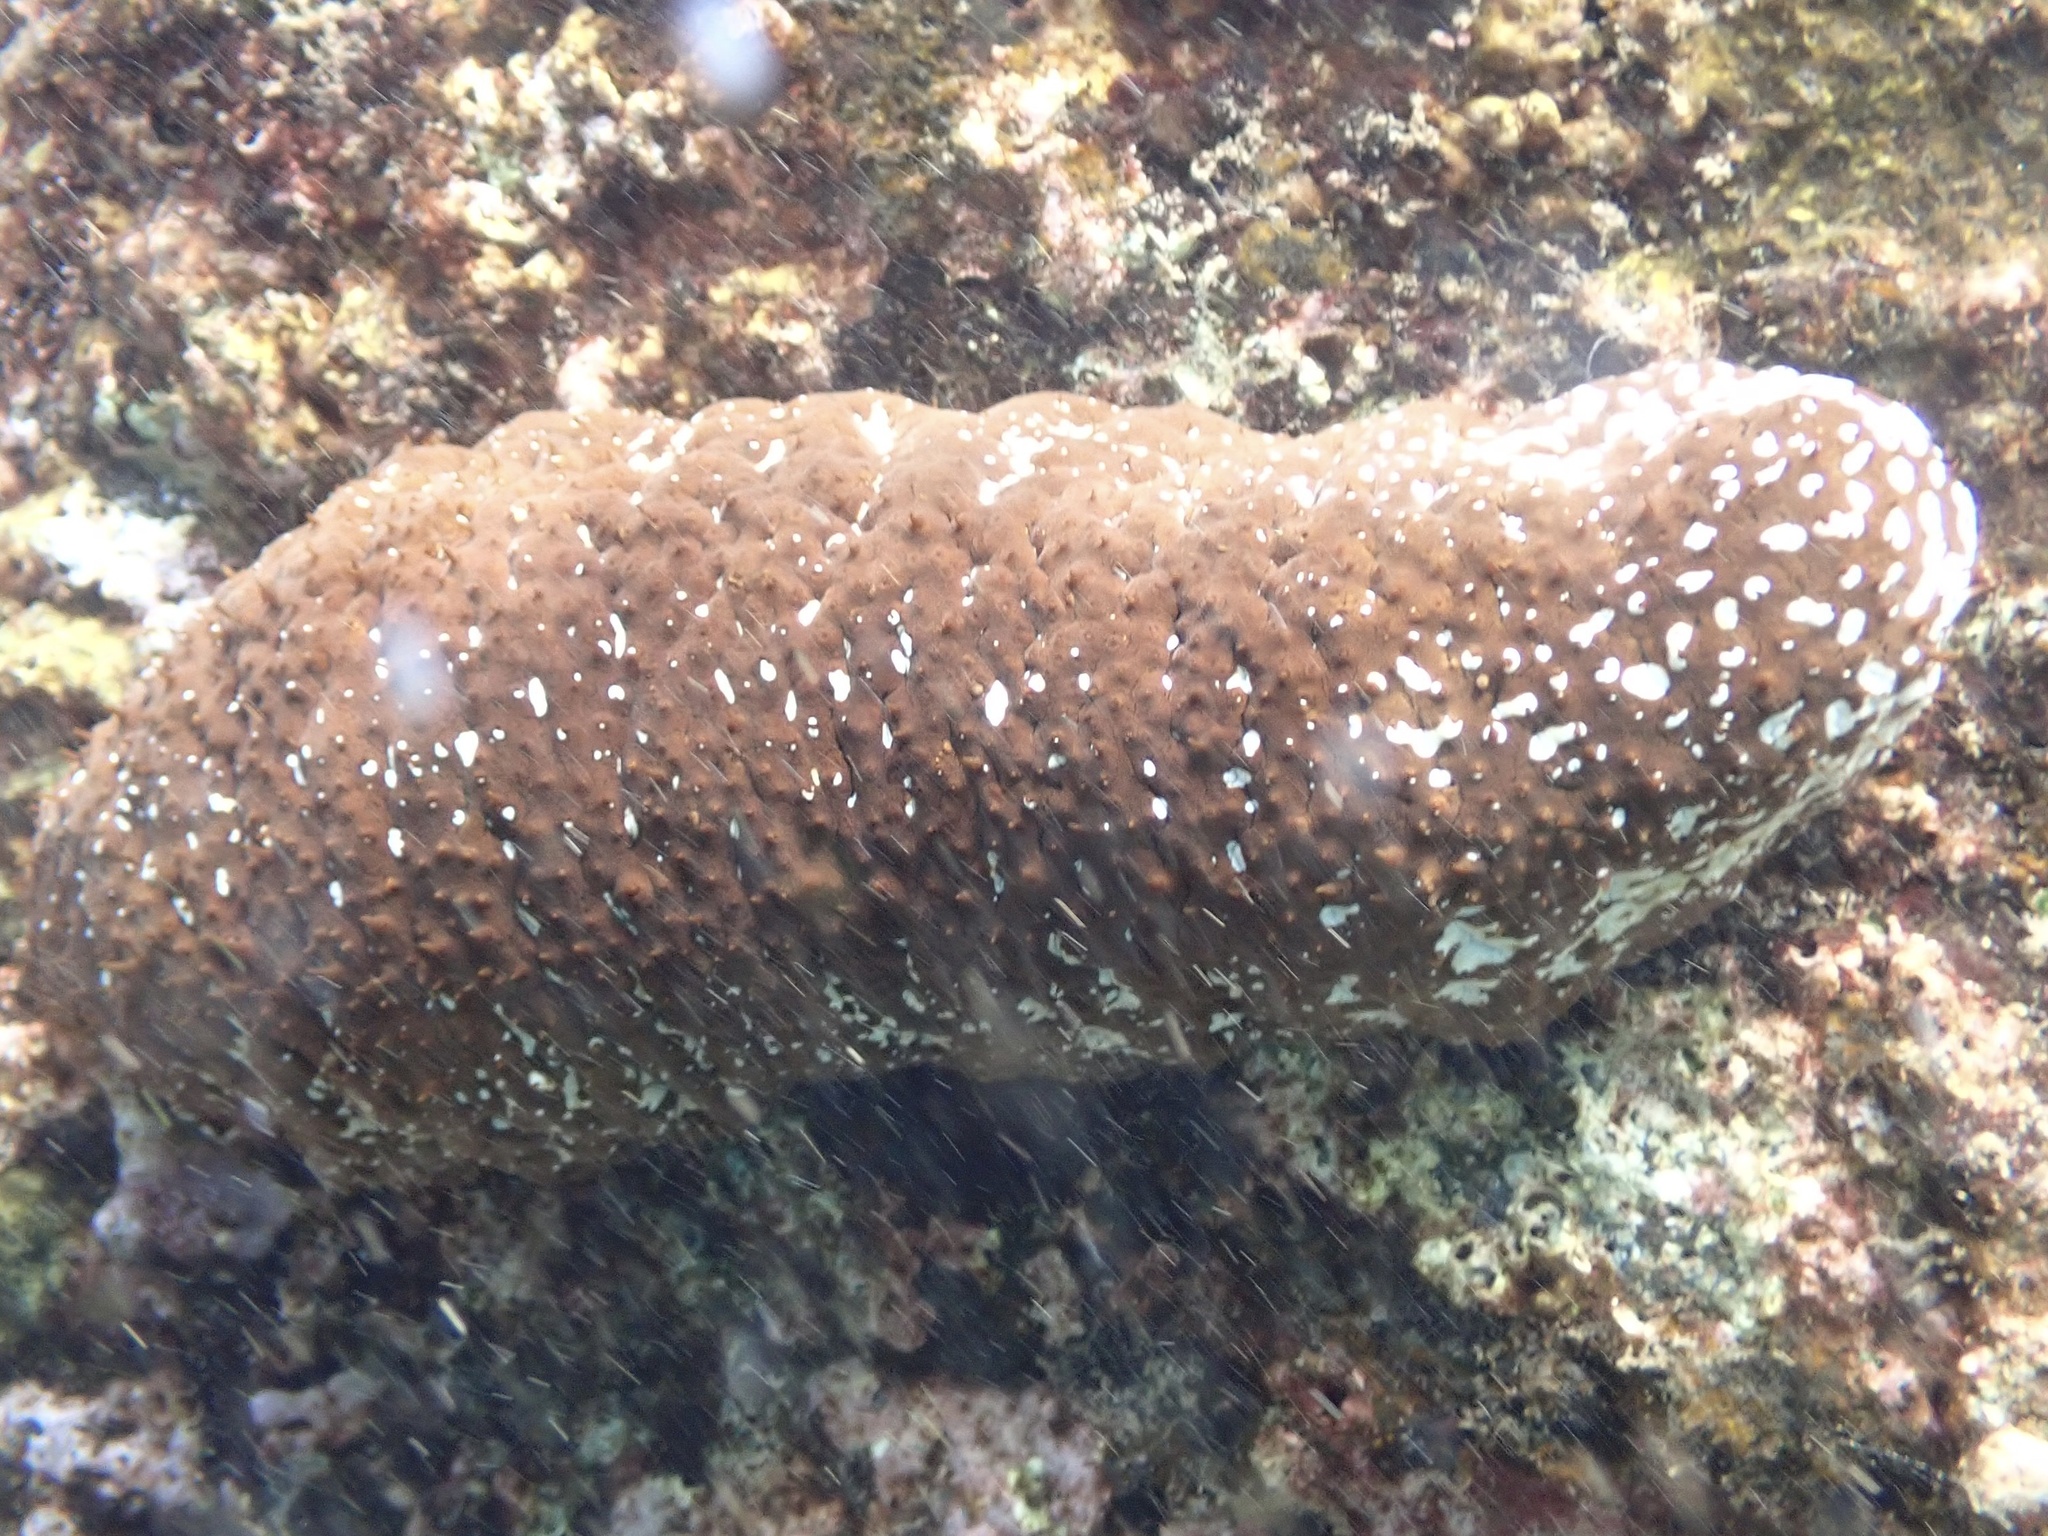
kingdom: Animalia
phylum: Echinodermata
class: Holothuroidea
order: Holothuriida
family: Holothuriidae
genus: Actinopyga
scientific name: Actinopyga varians
